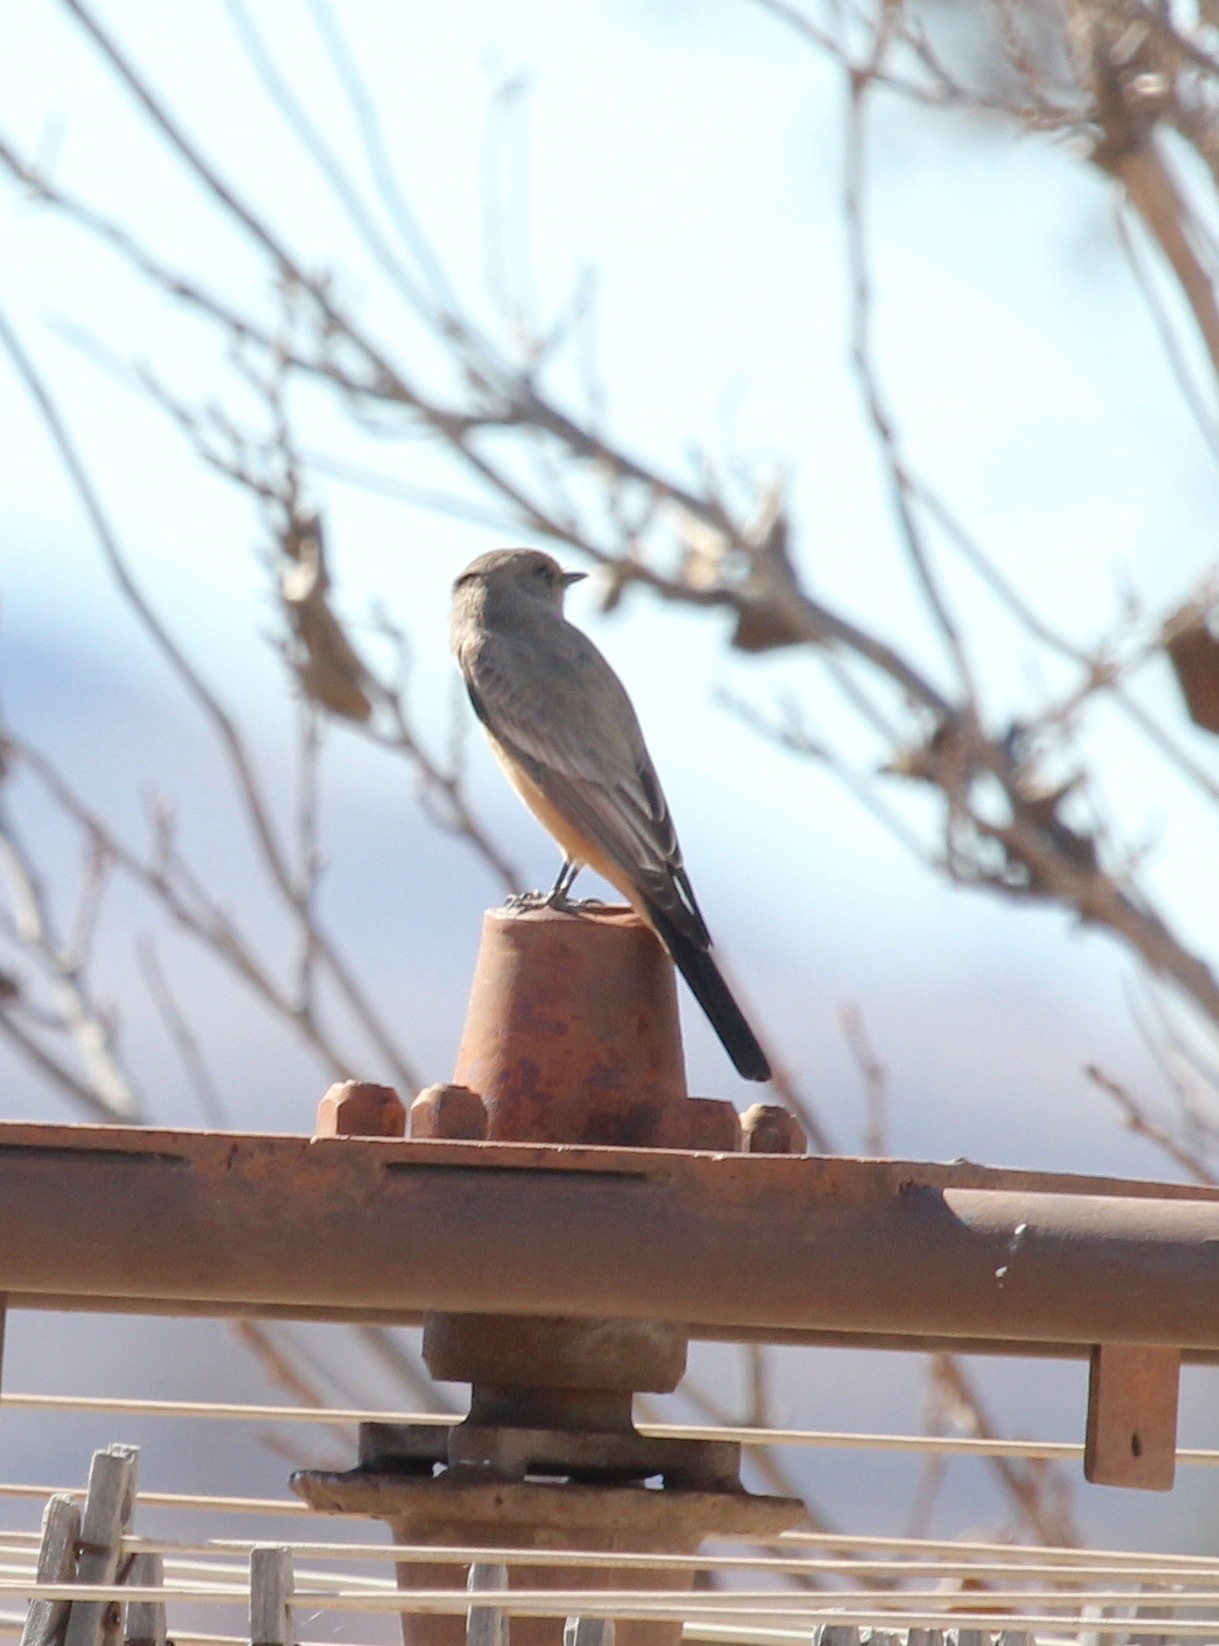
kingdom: Animalia
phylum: Chordata
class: Aves
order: Passeriformes
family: Tyrannidae
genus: Sayornis
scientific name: Sayornis saya
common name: Say's phoebe
